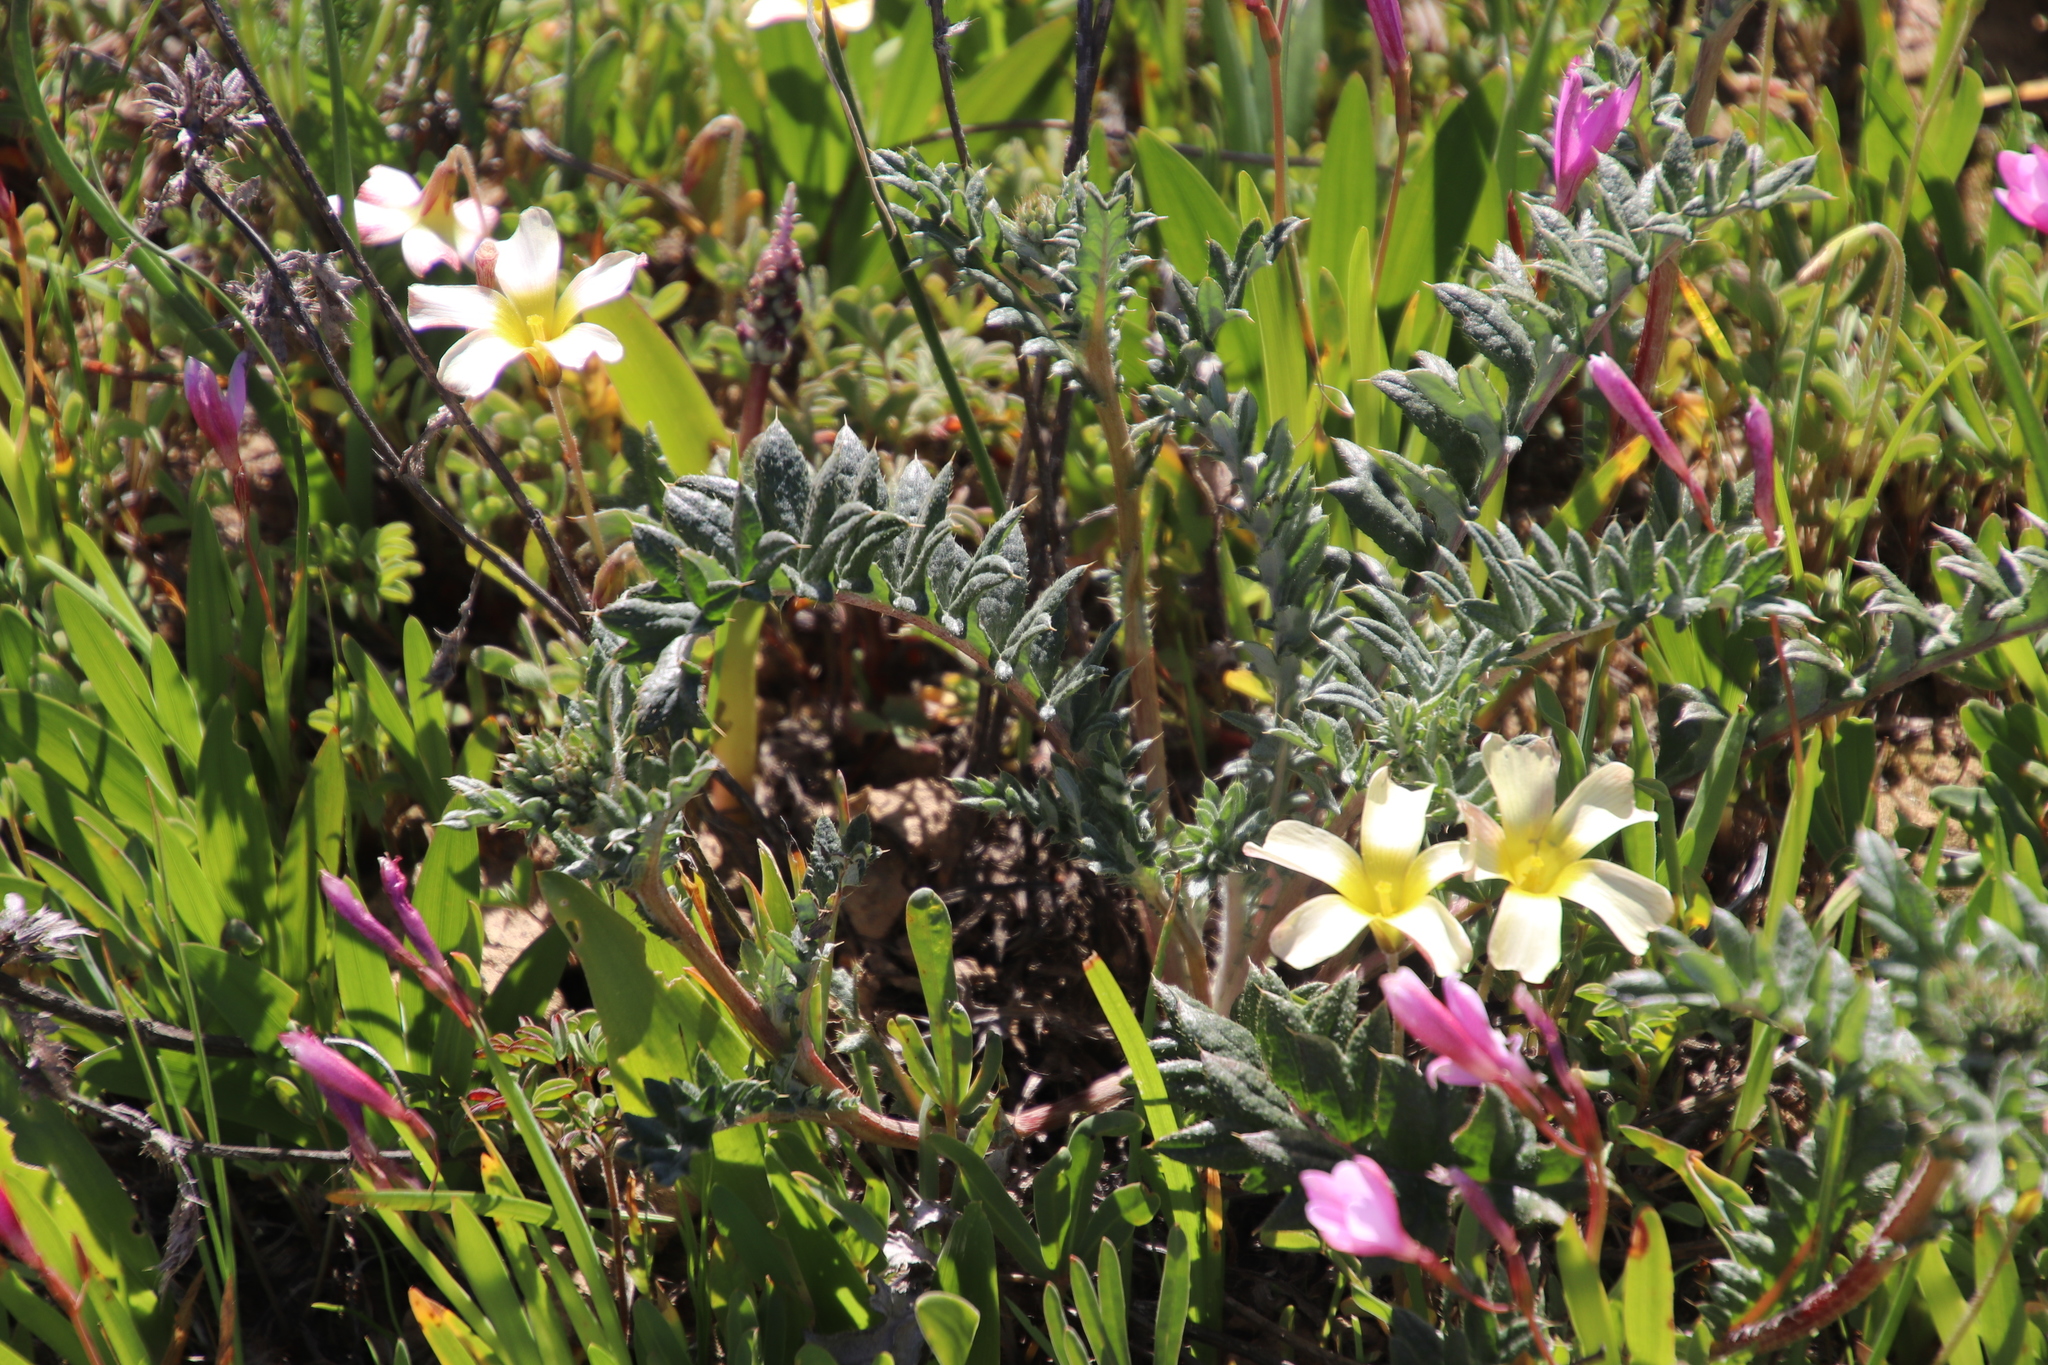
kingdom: Plantae
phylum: Tracheophyta
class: Magnoliopsida
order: Asterales
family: Asteraceae
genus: Berkheya
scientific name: Berkheya pinnatifida
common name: Lobed african thistle
